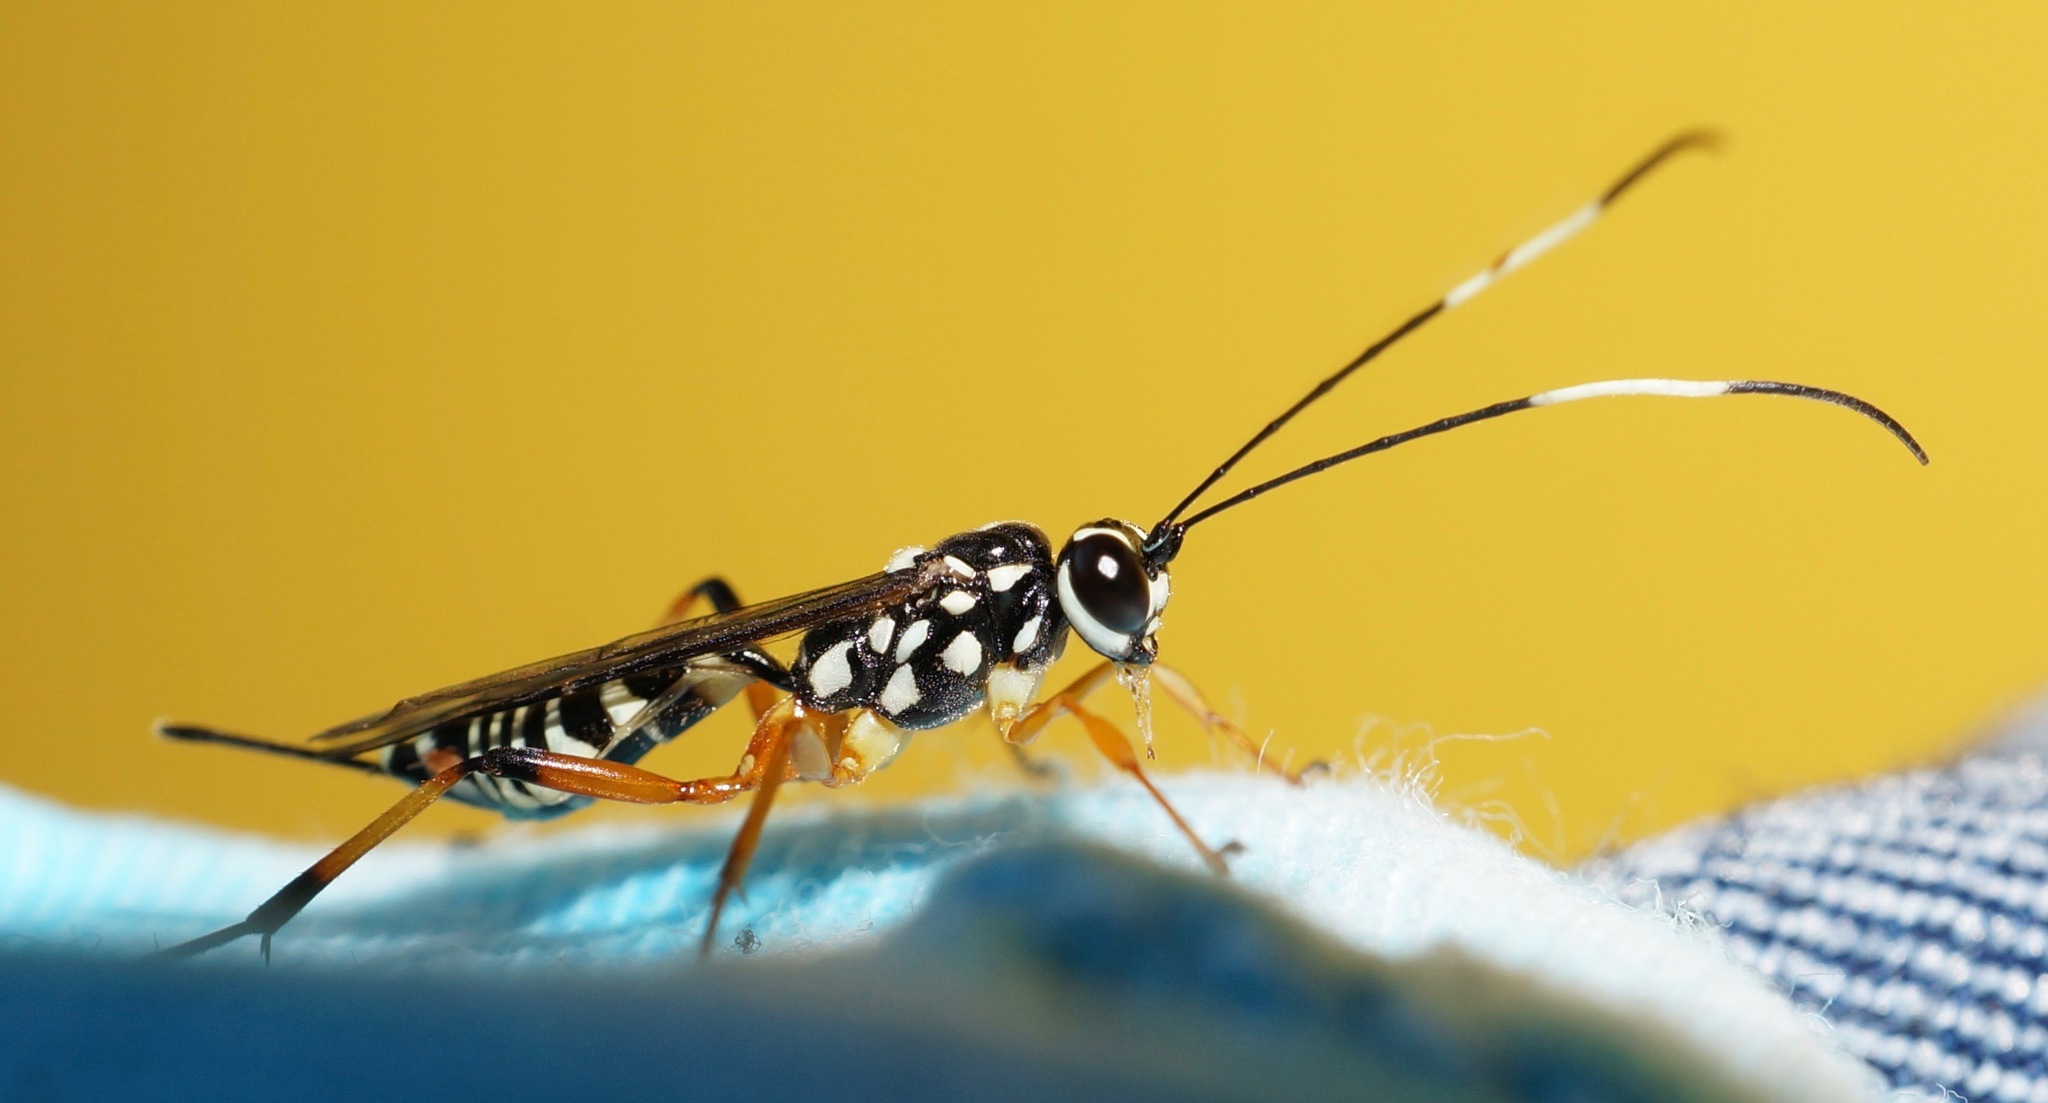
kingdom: Animalia
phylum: Arthropoda
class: Insecta
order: Hymenoptera
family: Ichneumonidae
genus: Xanthocryptus
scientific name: Xanthocryptus novozealandicus
